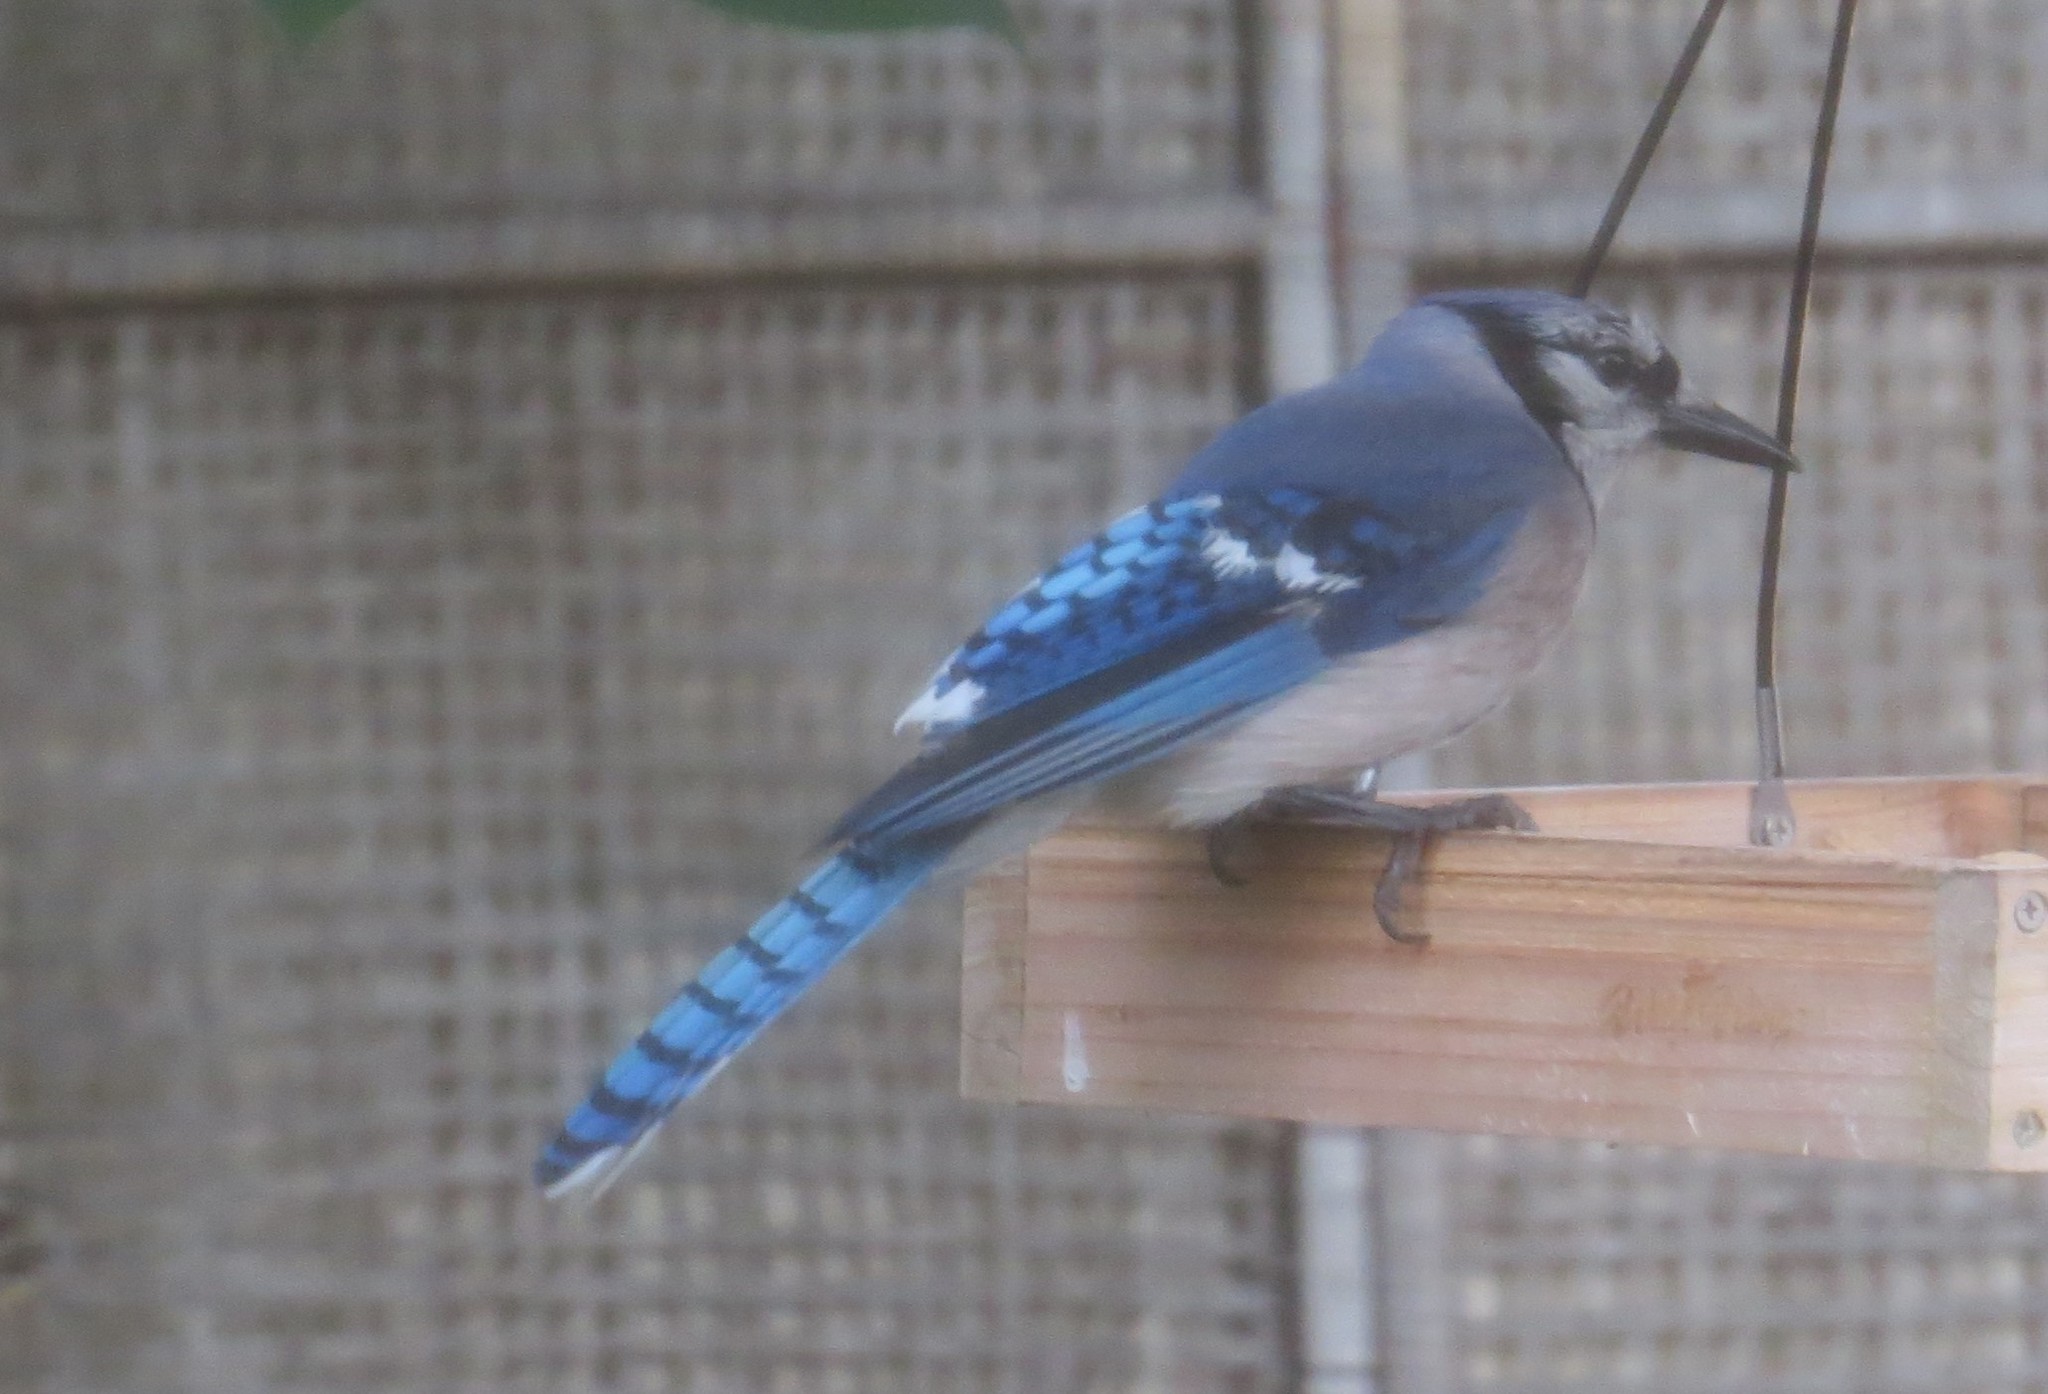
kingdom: Animalia
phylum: Chordata
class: Aves
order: Passeriformes
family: Corvidae
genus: Cyanocitta
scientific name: Cyanocitta cristata
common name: Blue jay
